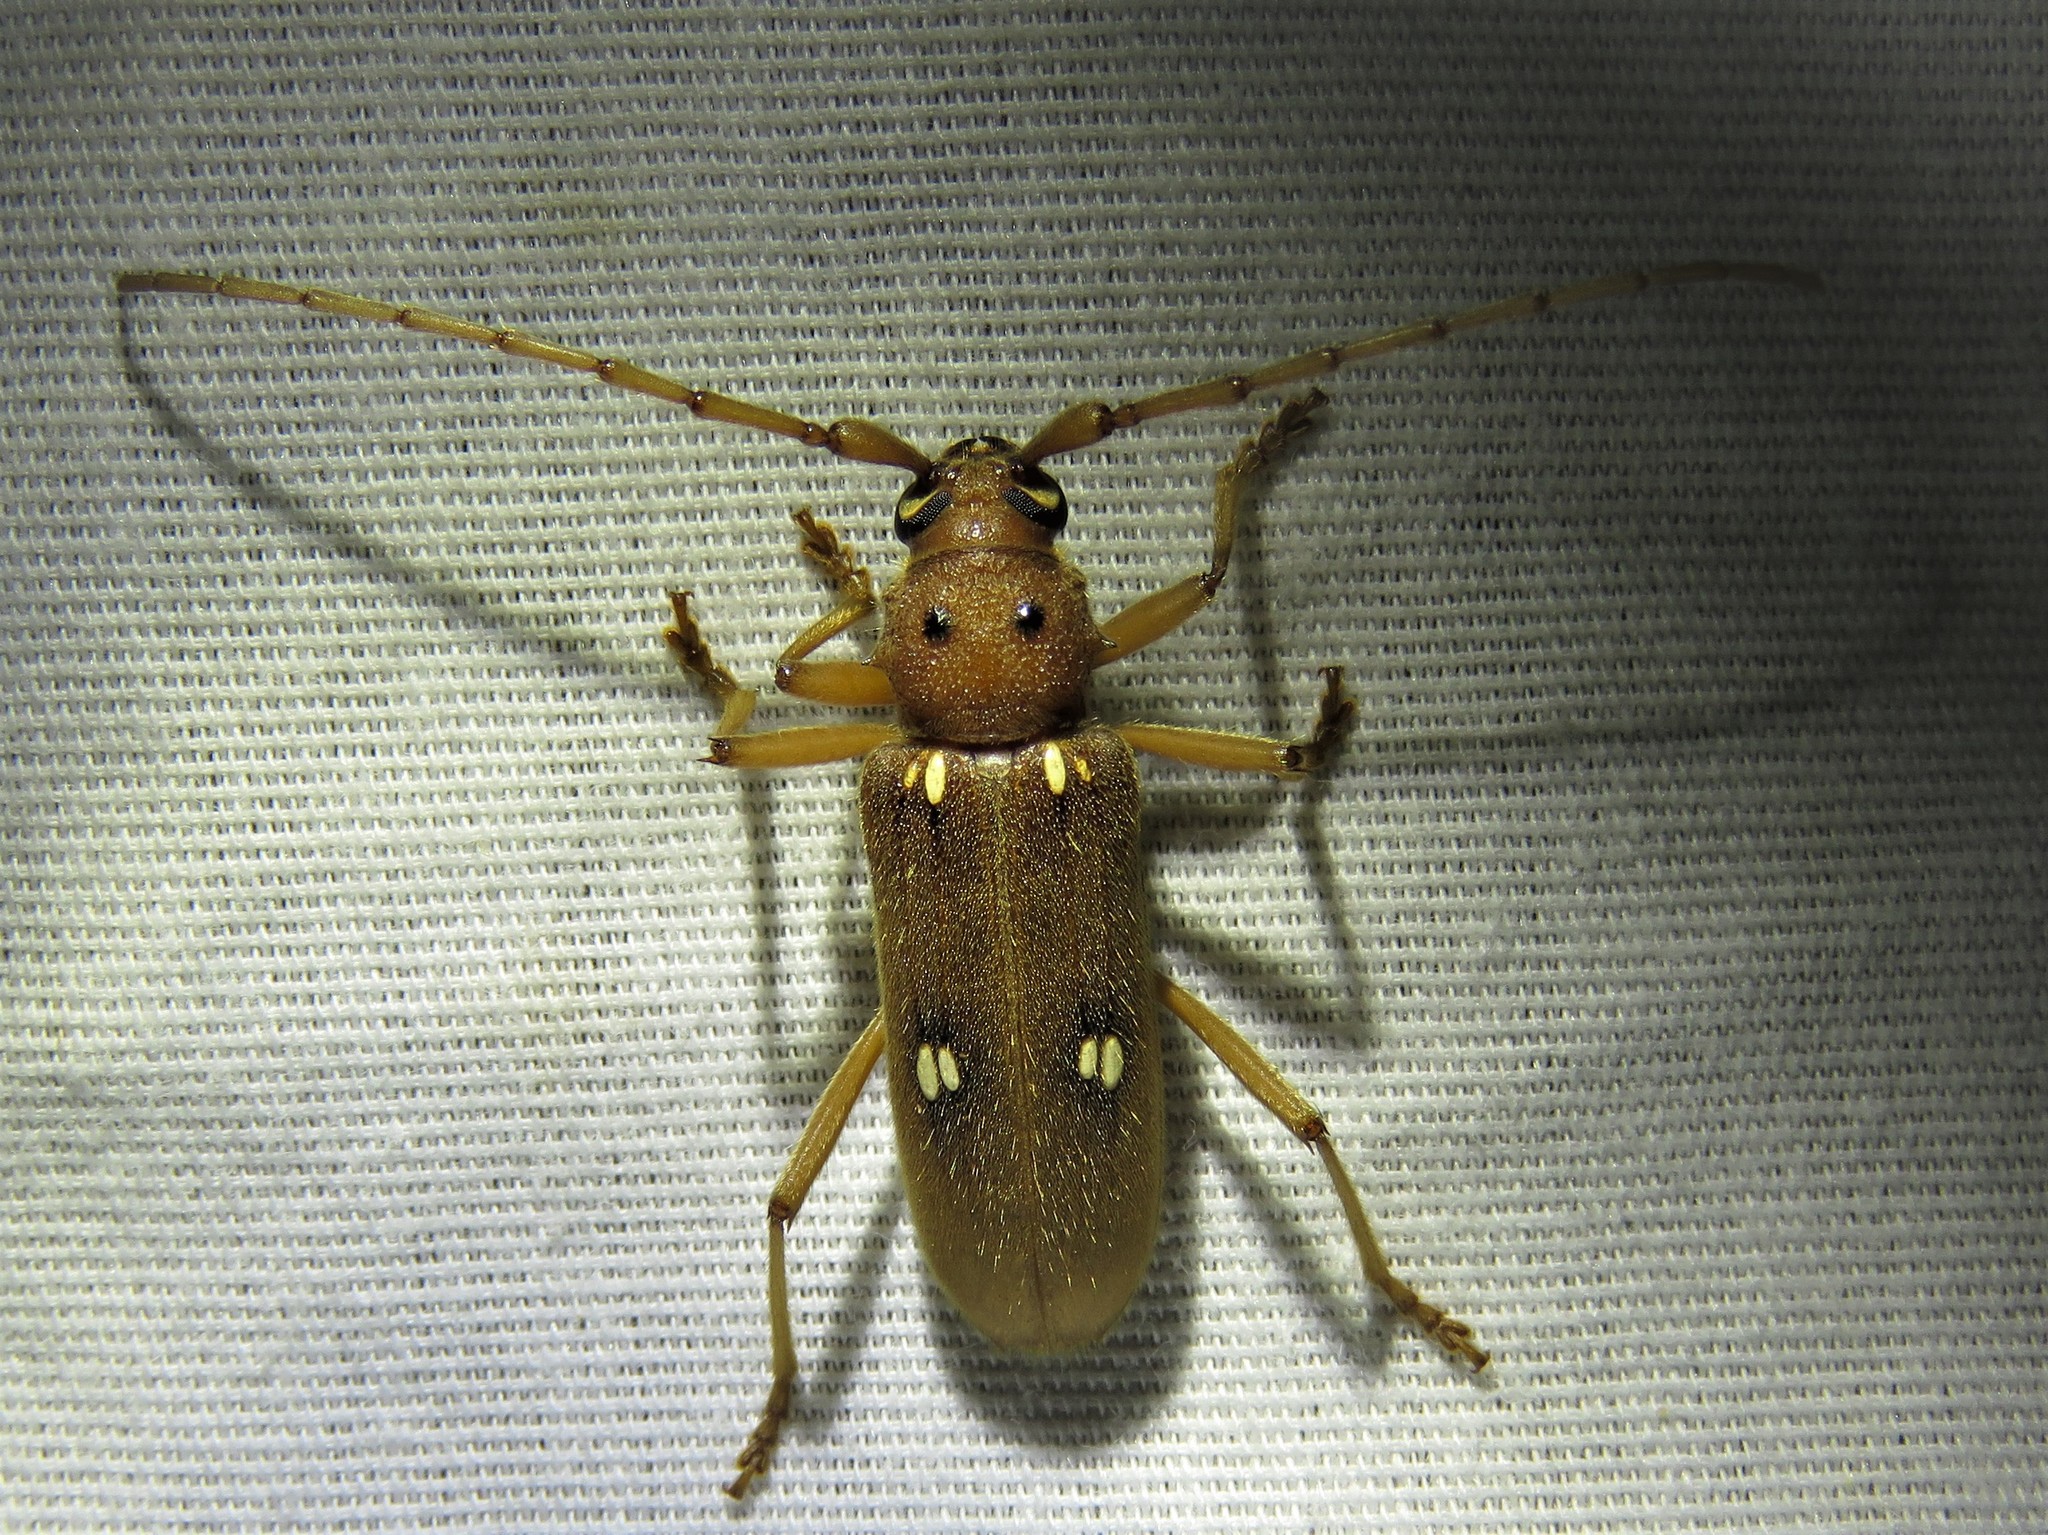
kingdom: Animalia
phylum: Arthropoda
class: Insecta
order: Coleoptera
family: Cerambycidae
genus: Eburia
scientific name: Eburia haldemani
